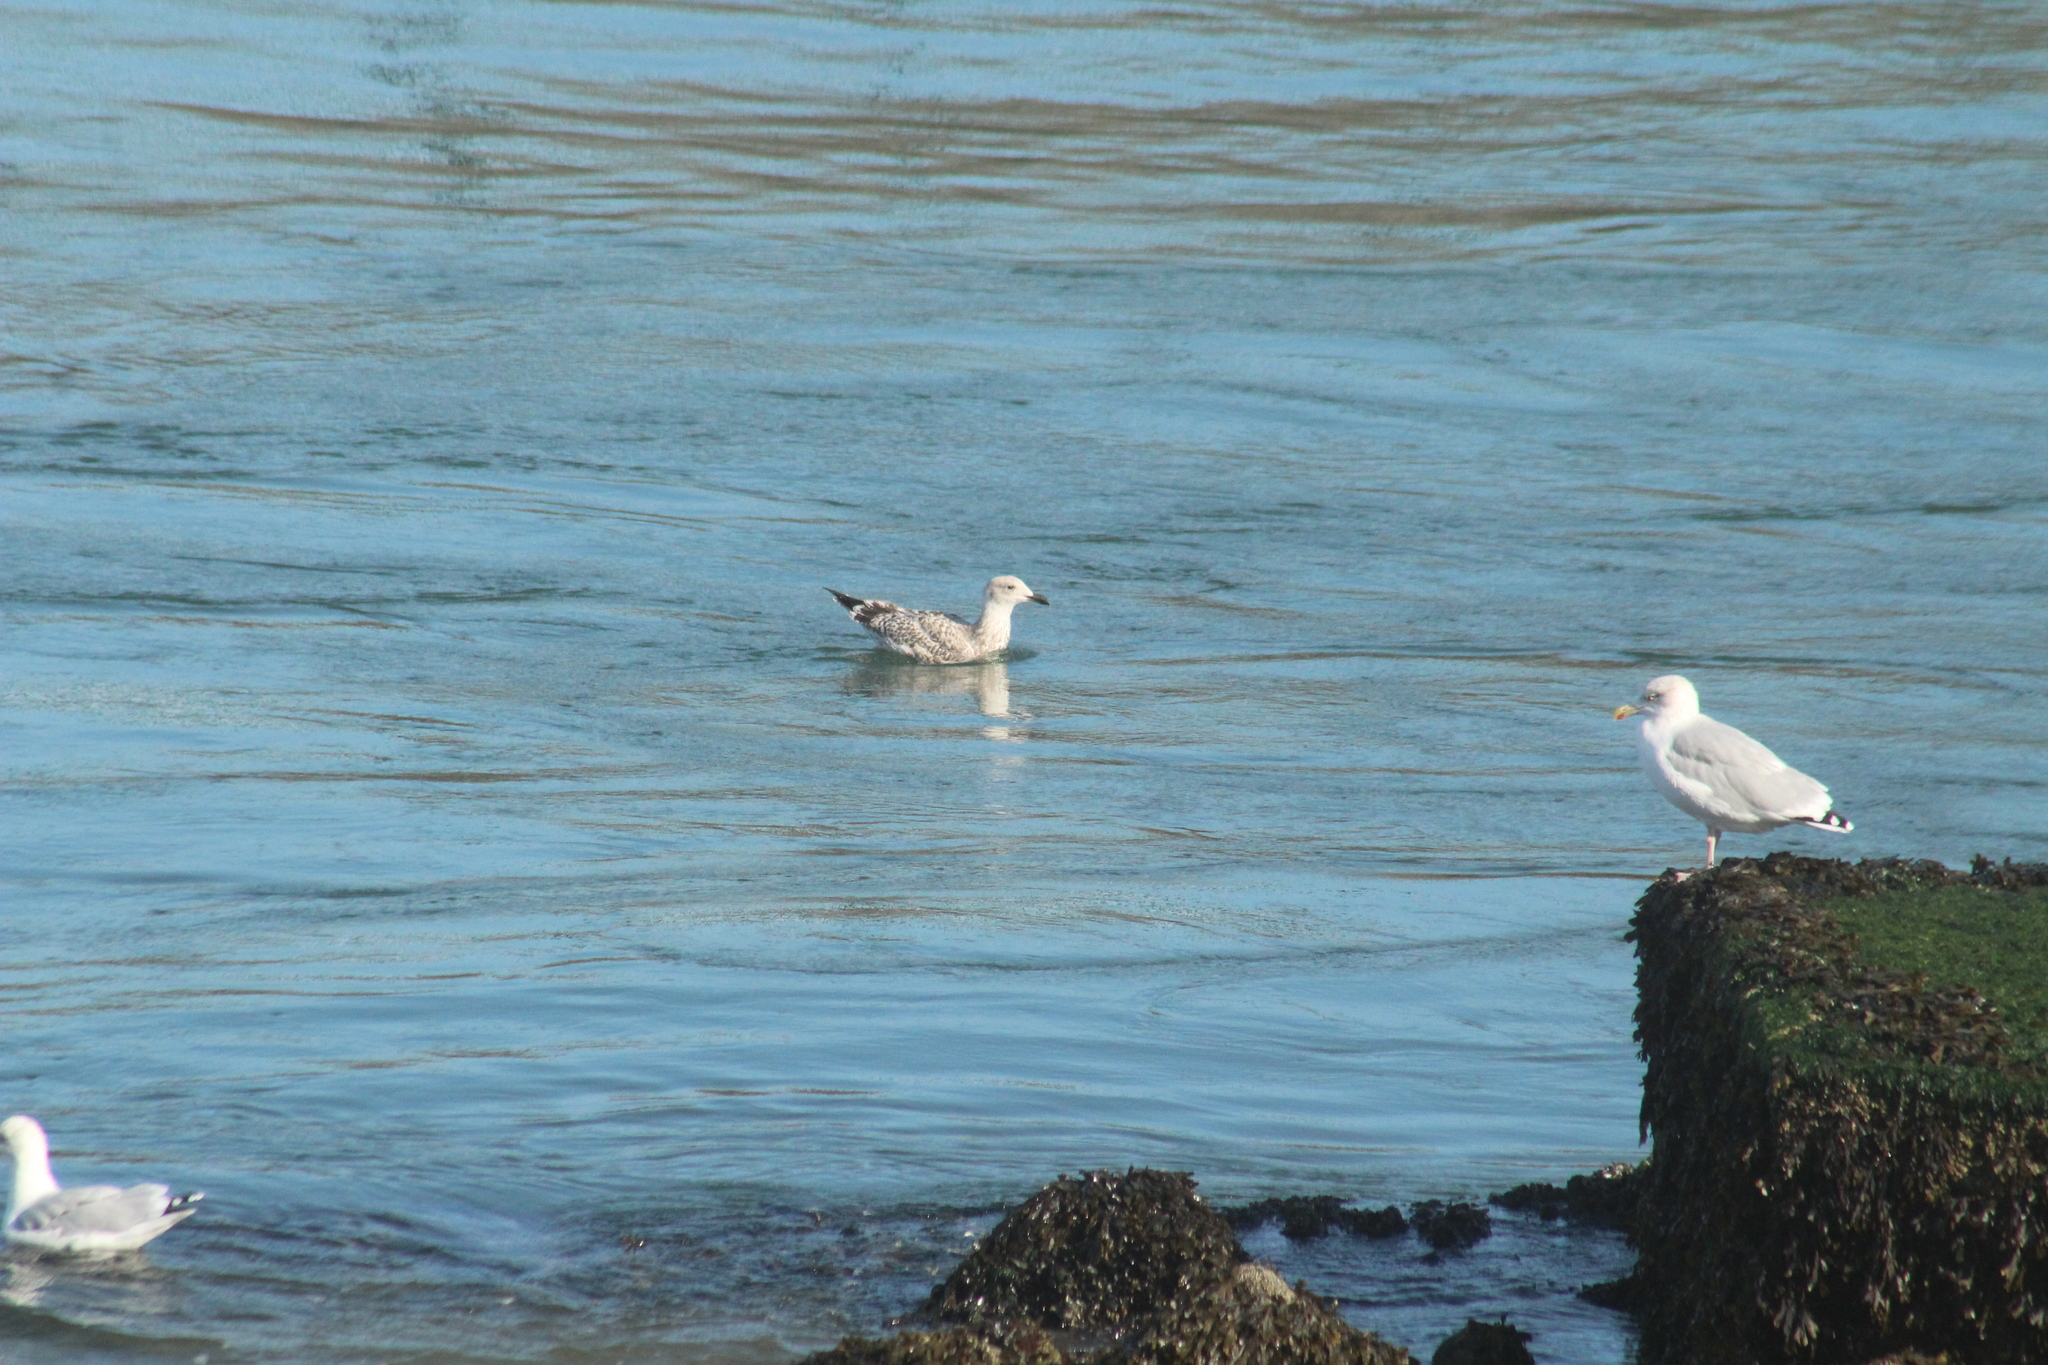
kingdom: Animalia
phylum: Chordata
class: Aves
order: Charadriiformes
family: Laridae
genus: Larus
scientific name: Larus argentatus
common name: Herring gull
